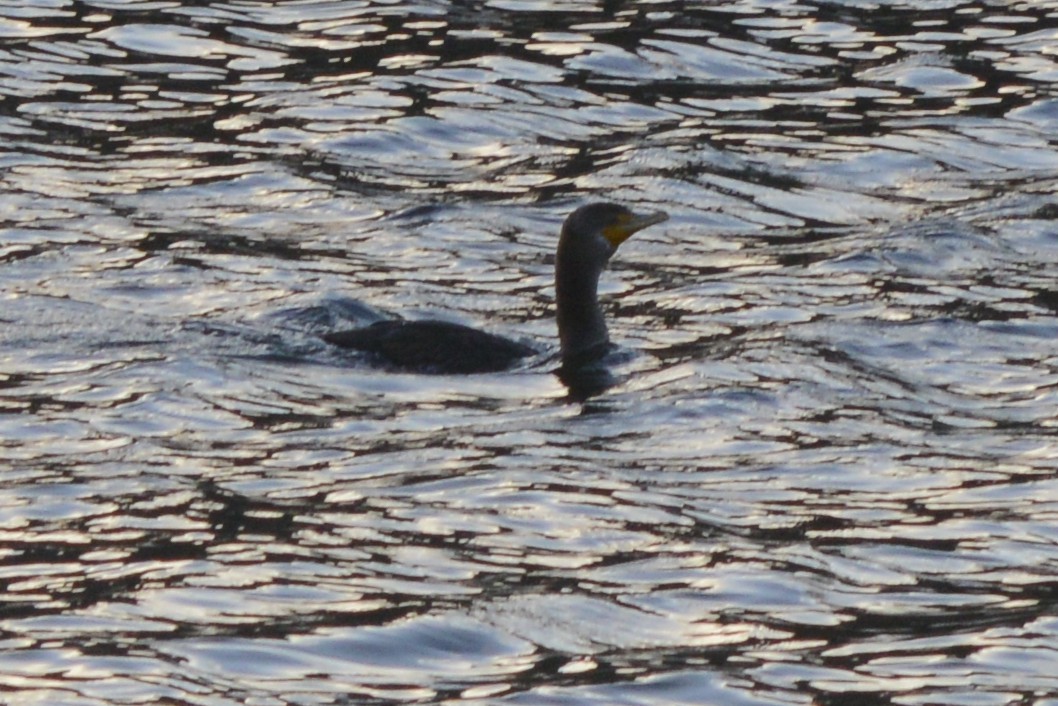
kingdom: Animalia
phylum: Chordata
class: Aves
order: Suliformes
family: Phalacrocoracidae
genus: Phalacrocorax
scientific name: Phalacrocorax auritus
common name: Double-crested cormorant
